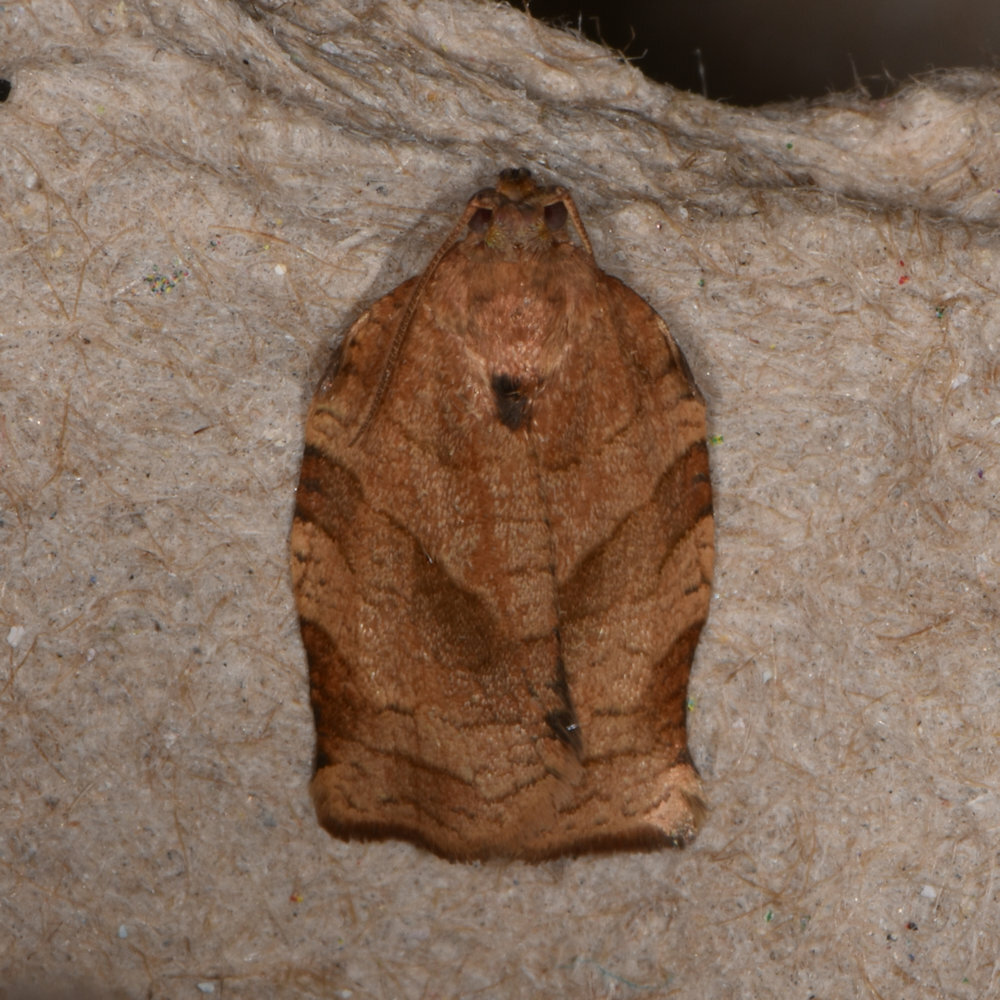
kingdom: Animalia
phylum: Arthropoda
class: Insecta
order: Lepidoptera
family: Tortricidae
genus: Choristoneura
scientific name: Choristoneura rosaceana
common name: Oblique-banded leafroller moth
